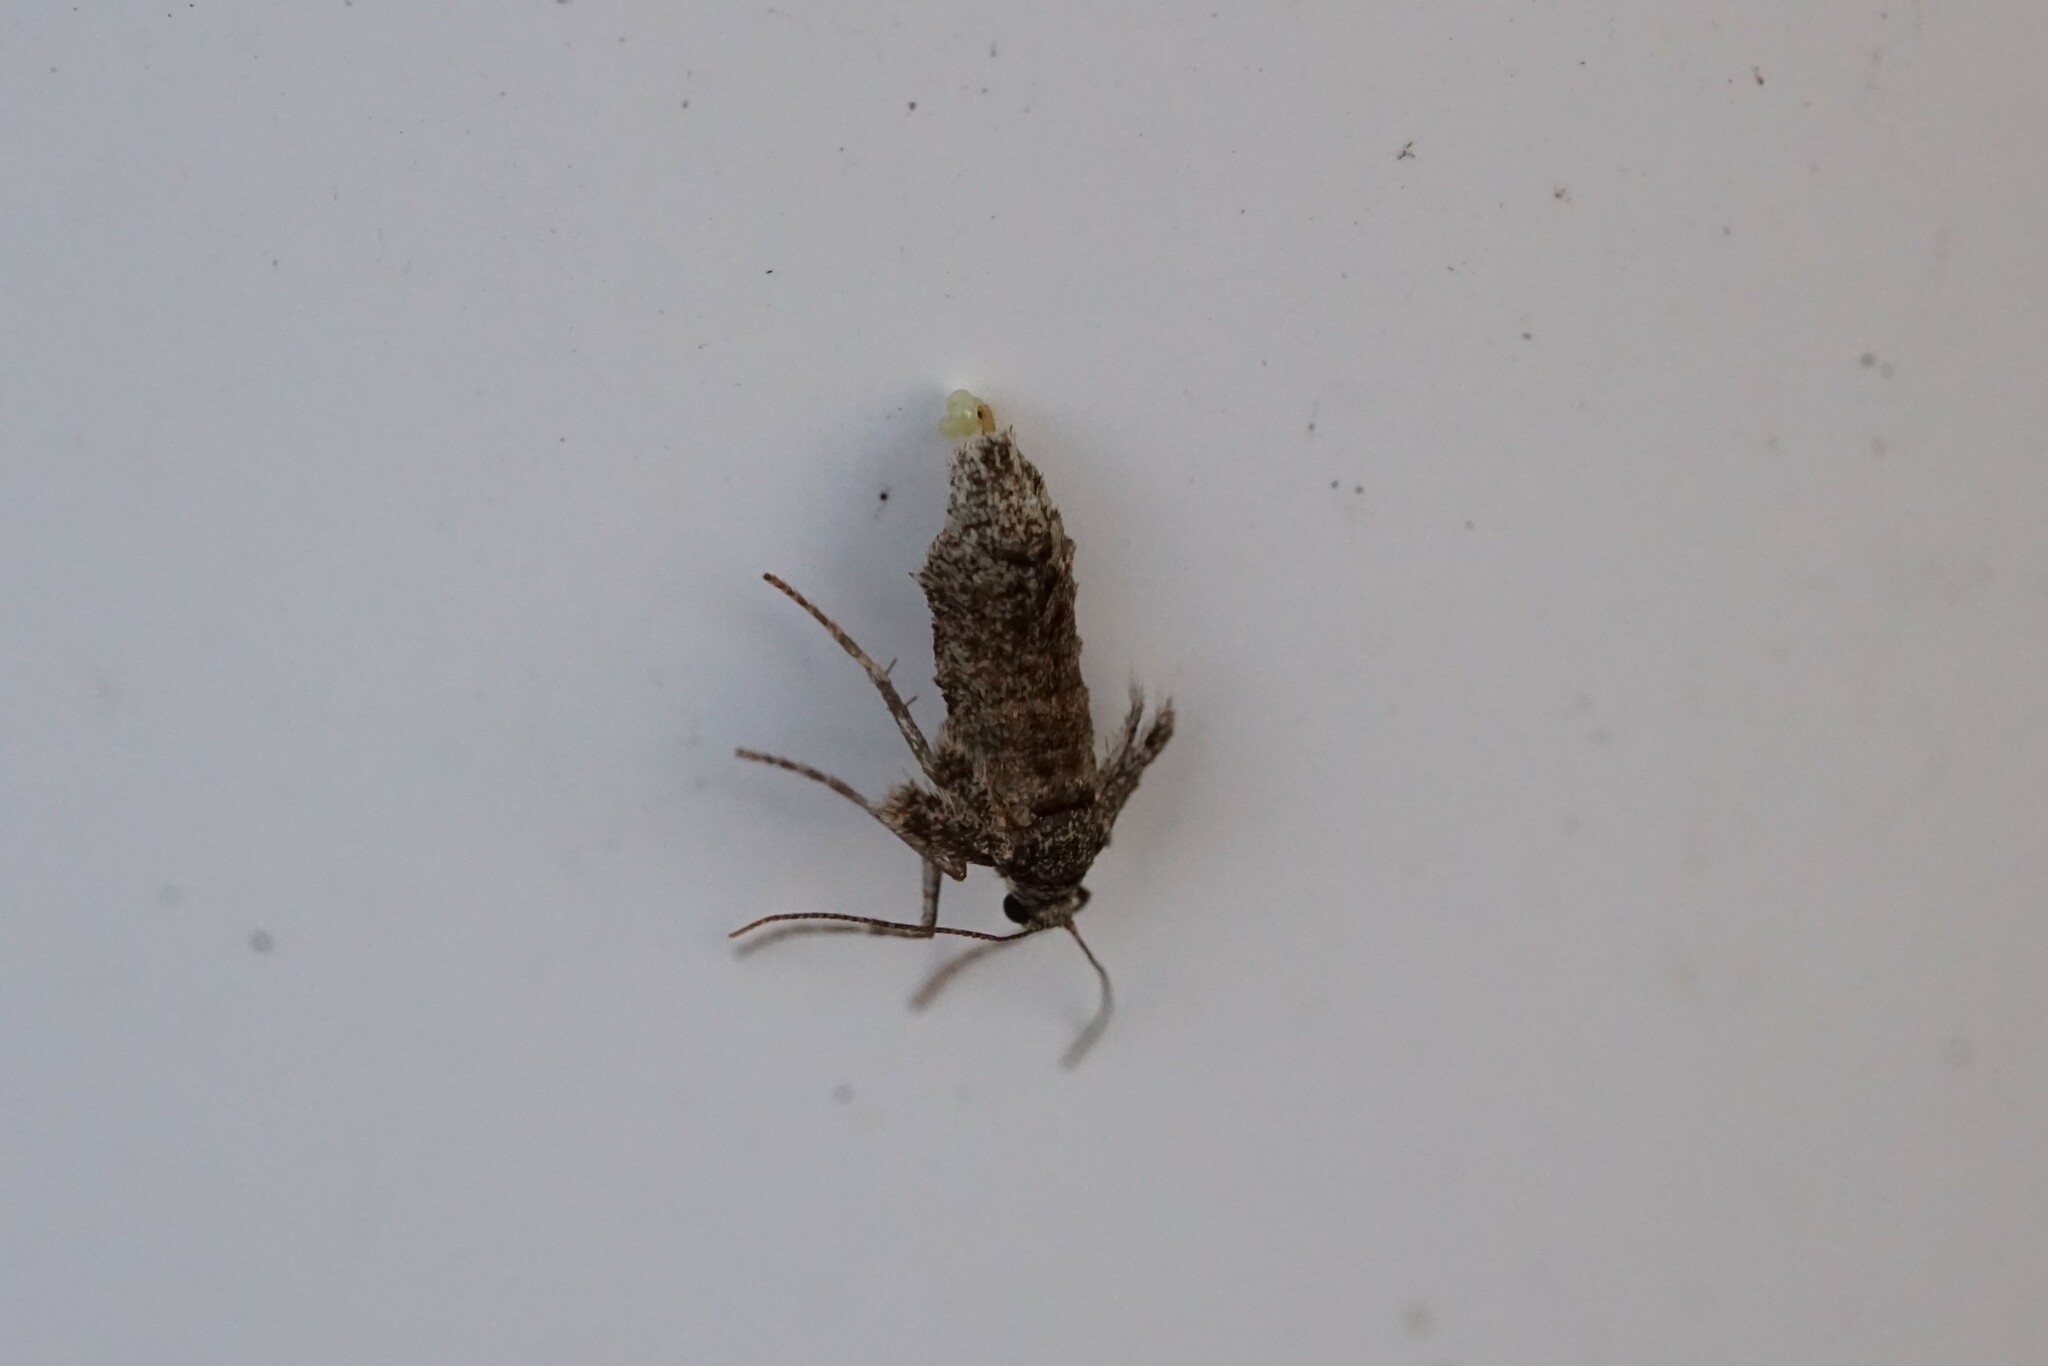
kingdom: Animalia
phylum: Arthropoda
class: Insecta
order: Lepidoptera
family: Geometridae
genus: Operophtera
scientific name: Operophtera brumata
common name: Winter moth
